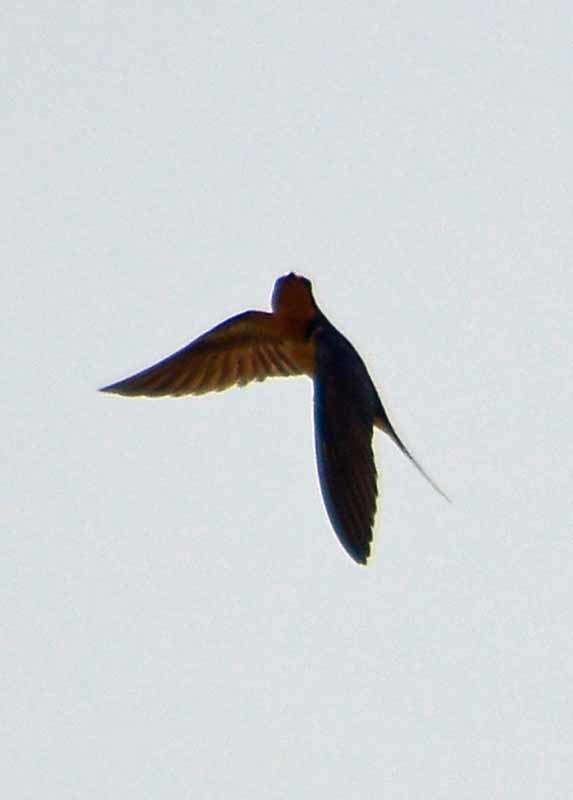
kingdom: Animalia
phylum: Chordata
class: Aves
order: Passeriformes
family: Hirundinidae
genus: Hirundo
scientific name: Hirundo rustica
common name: Barn swallow
